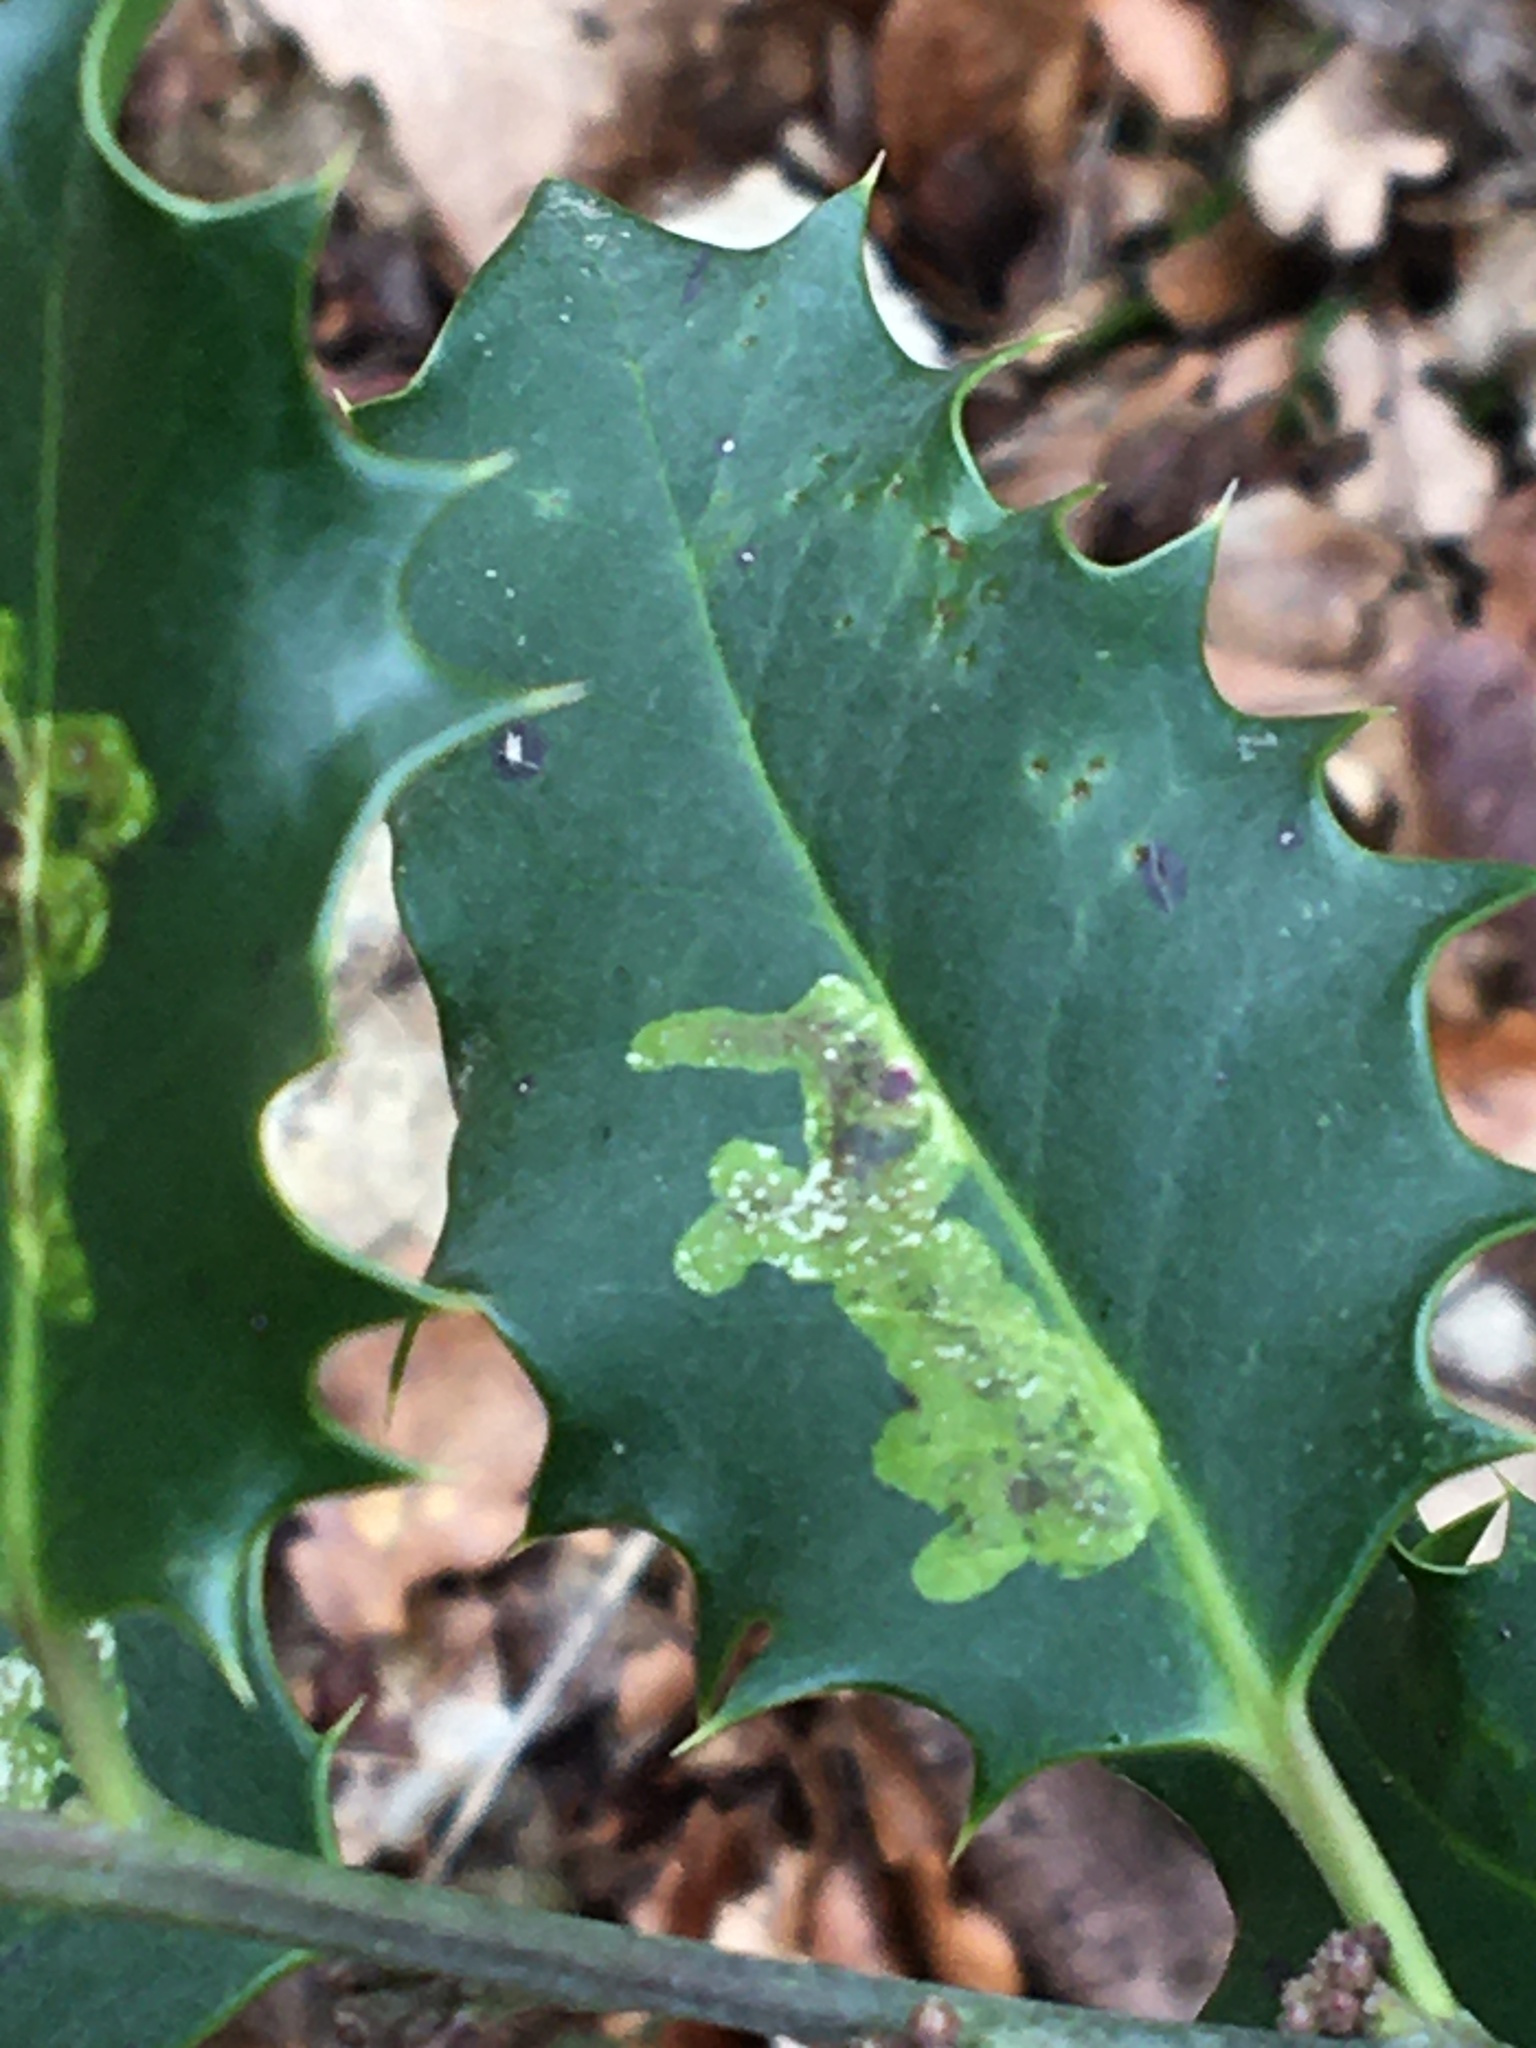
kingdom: Animalia
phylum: Arthropoda
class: Insecta
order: Diptera
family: Agromyzidae
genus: Phytomyza
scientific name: Phytomyza ilicis
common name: Holly leafminer
